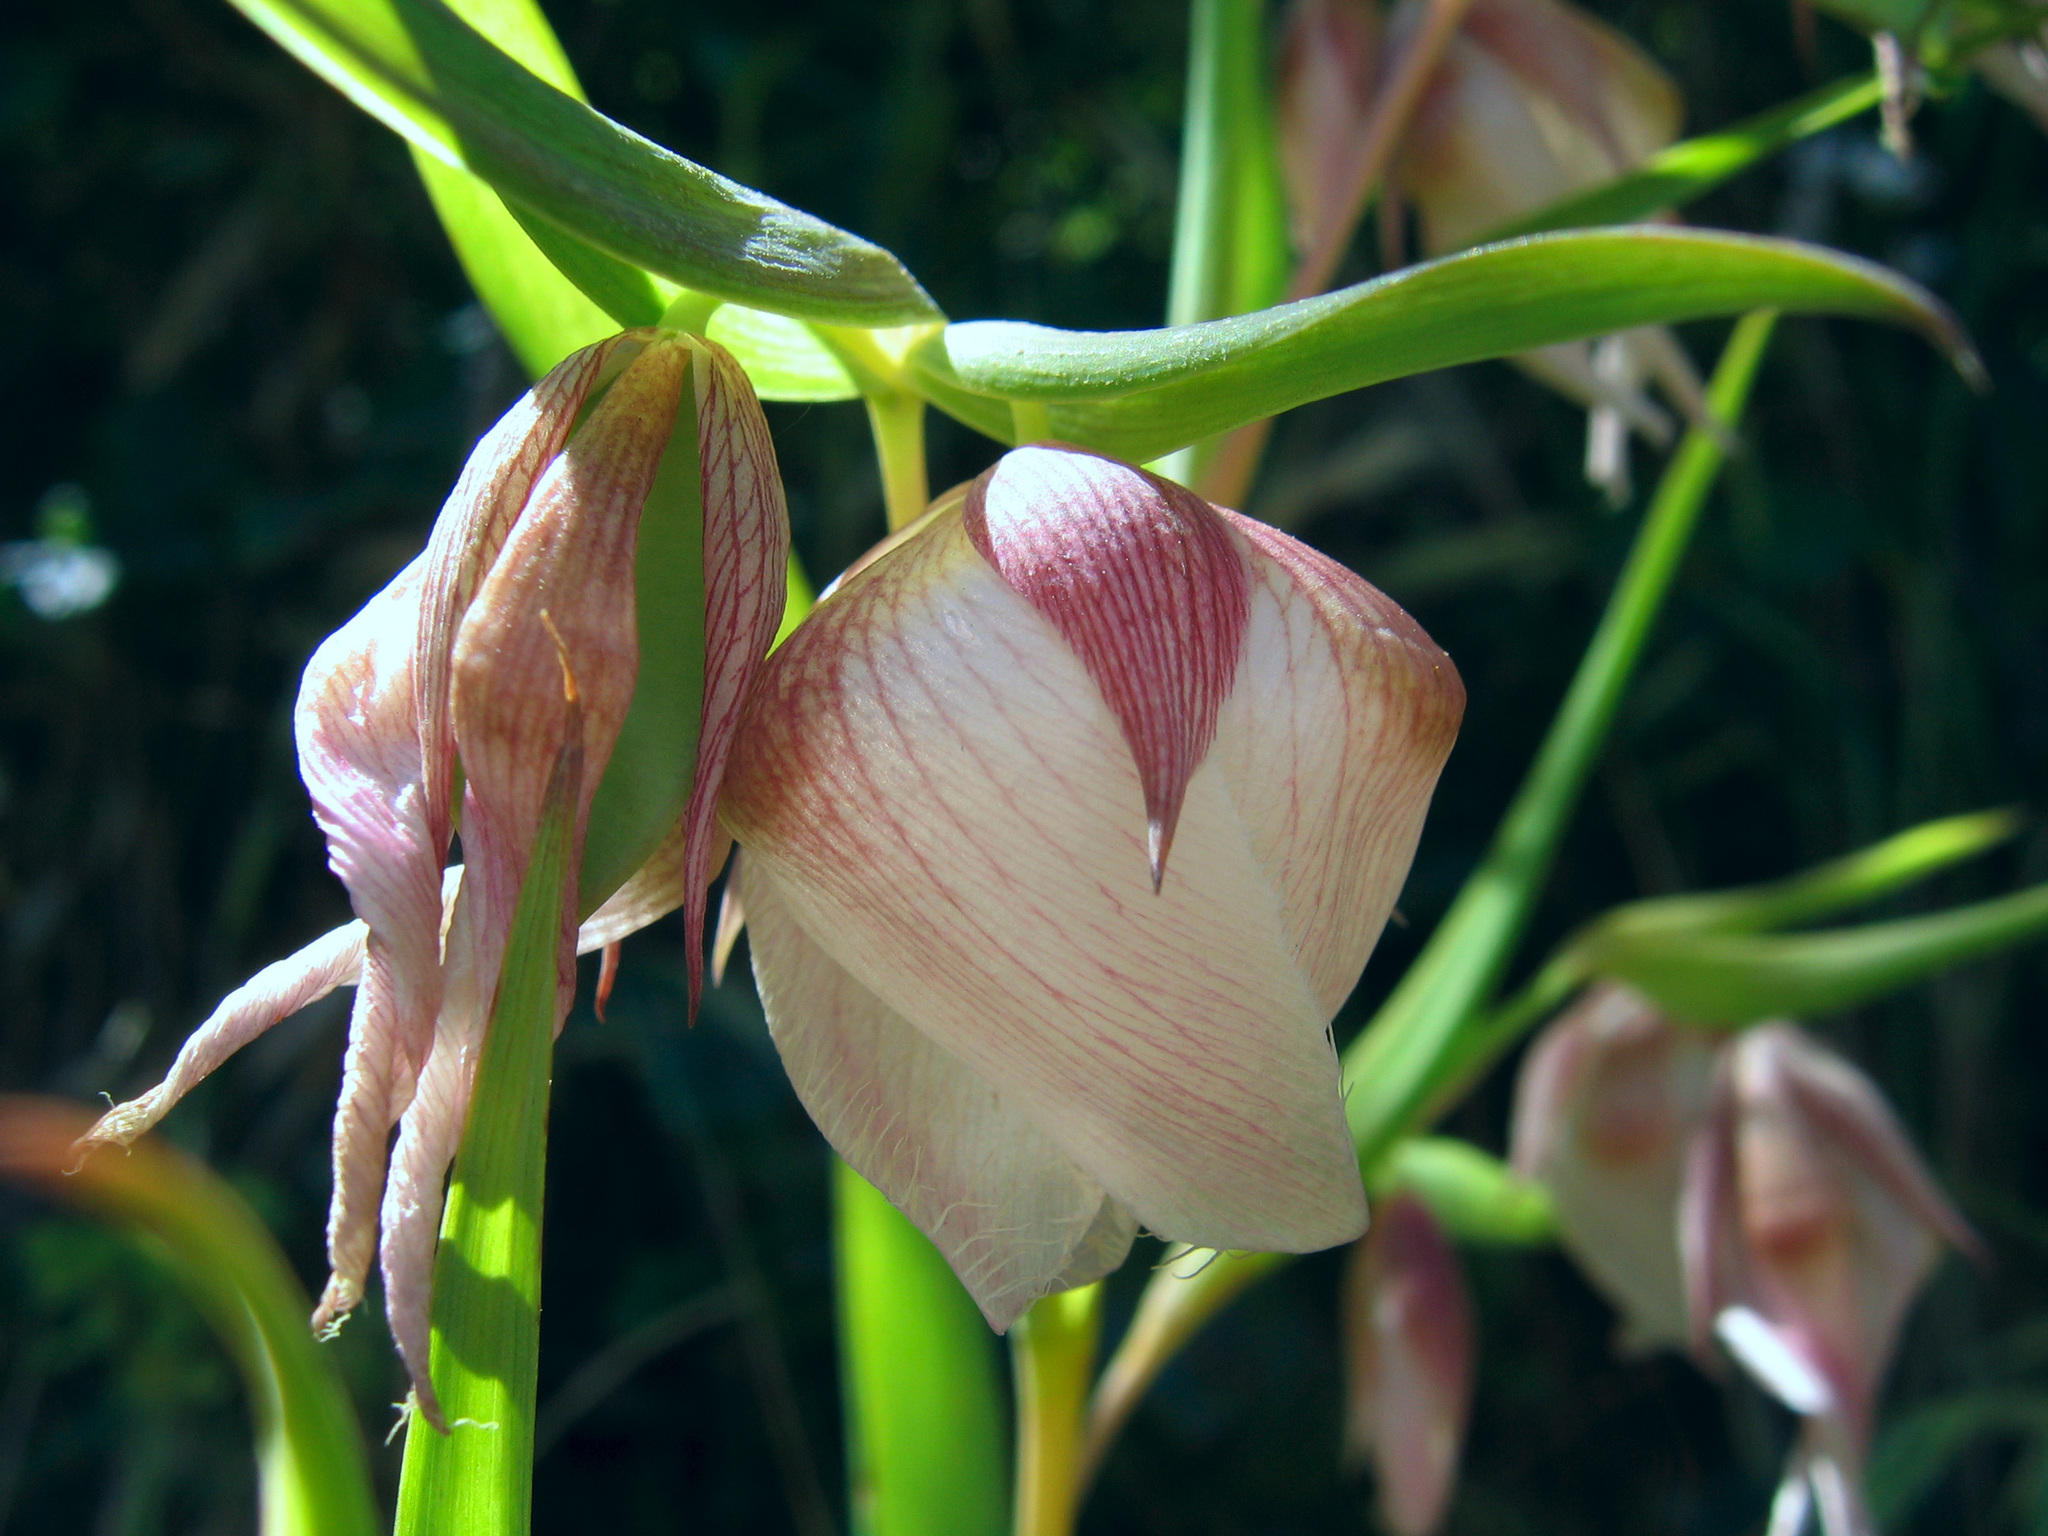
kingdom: Plantae
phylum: Tracheophyta
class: Liliopsida
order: Liliales
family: Liliaceae
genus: Calochortus
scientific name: Calochortus albus
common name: Fairy-lantern
